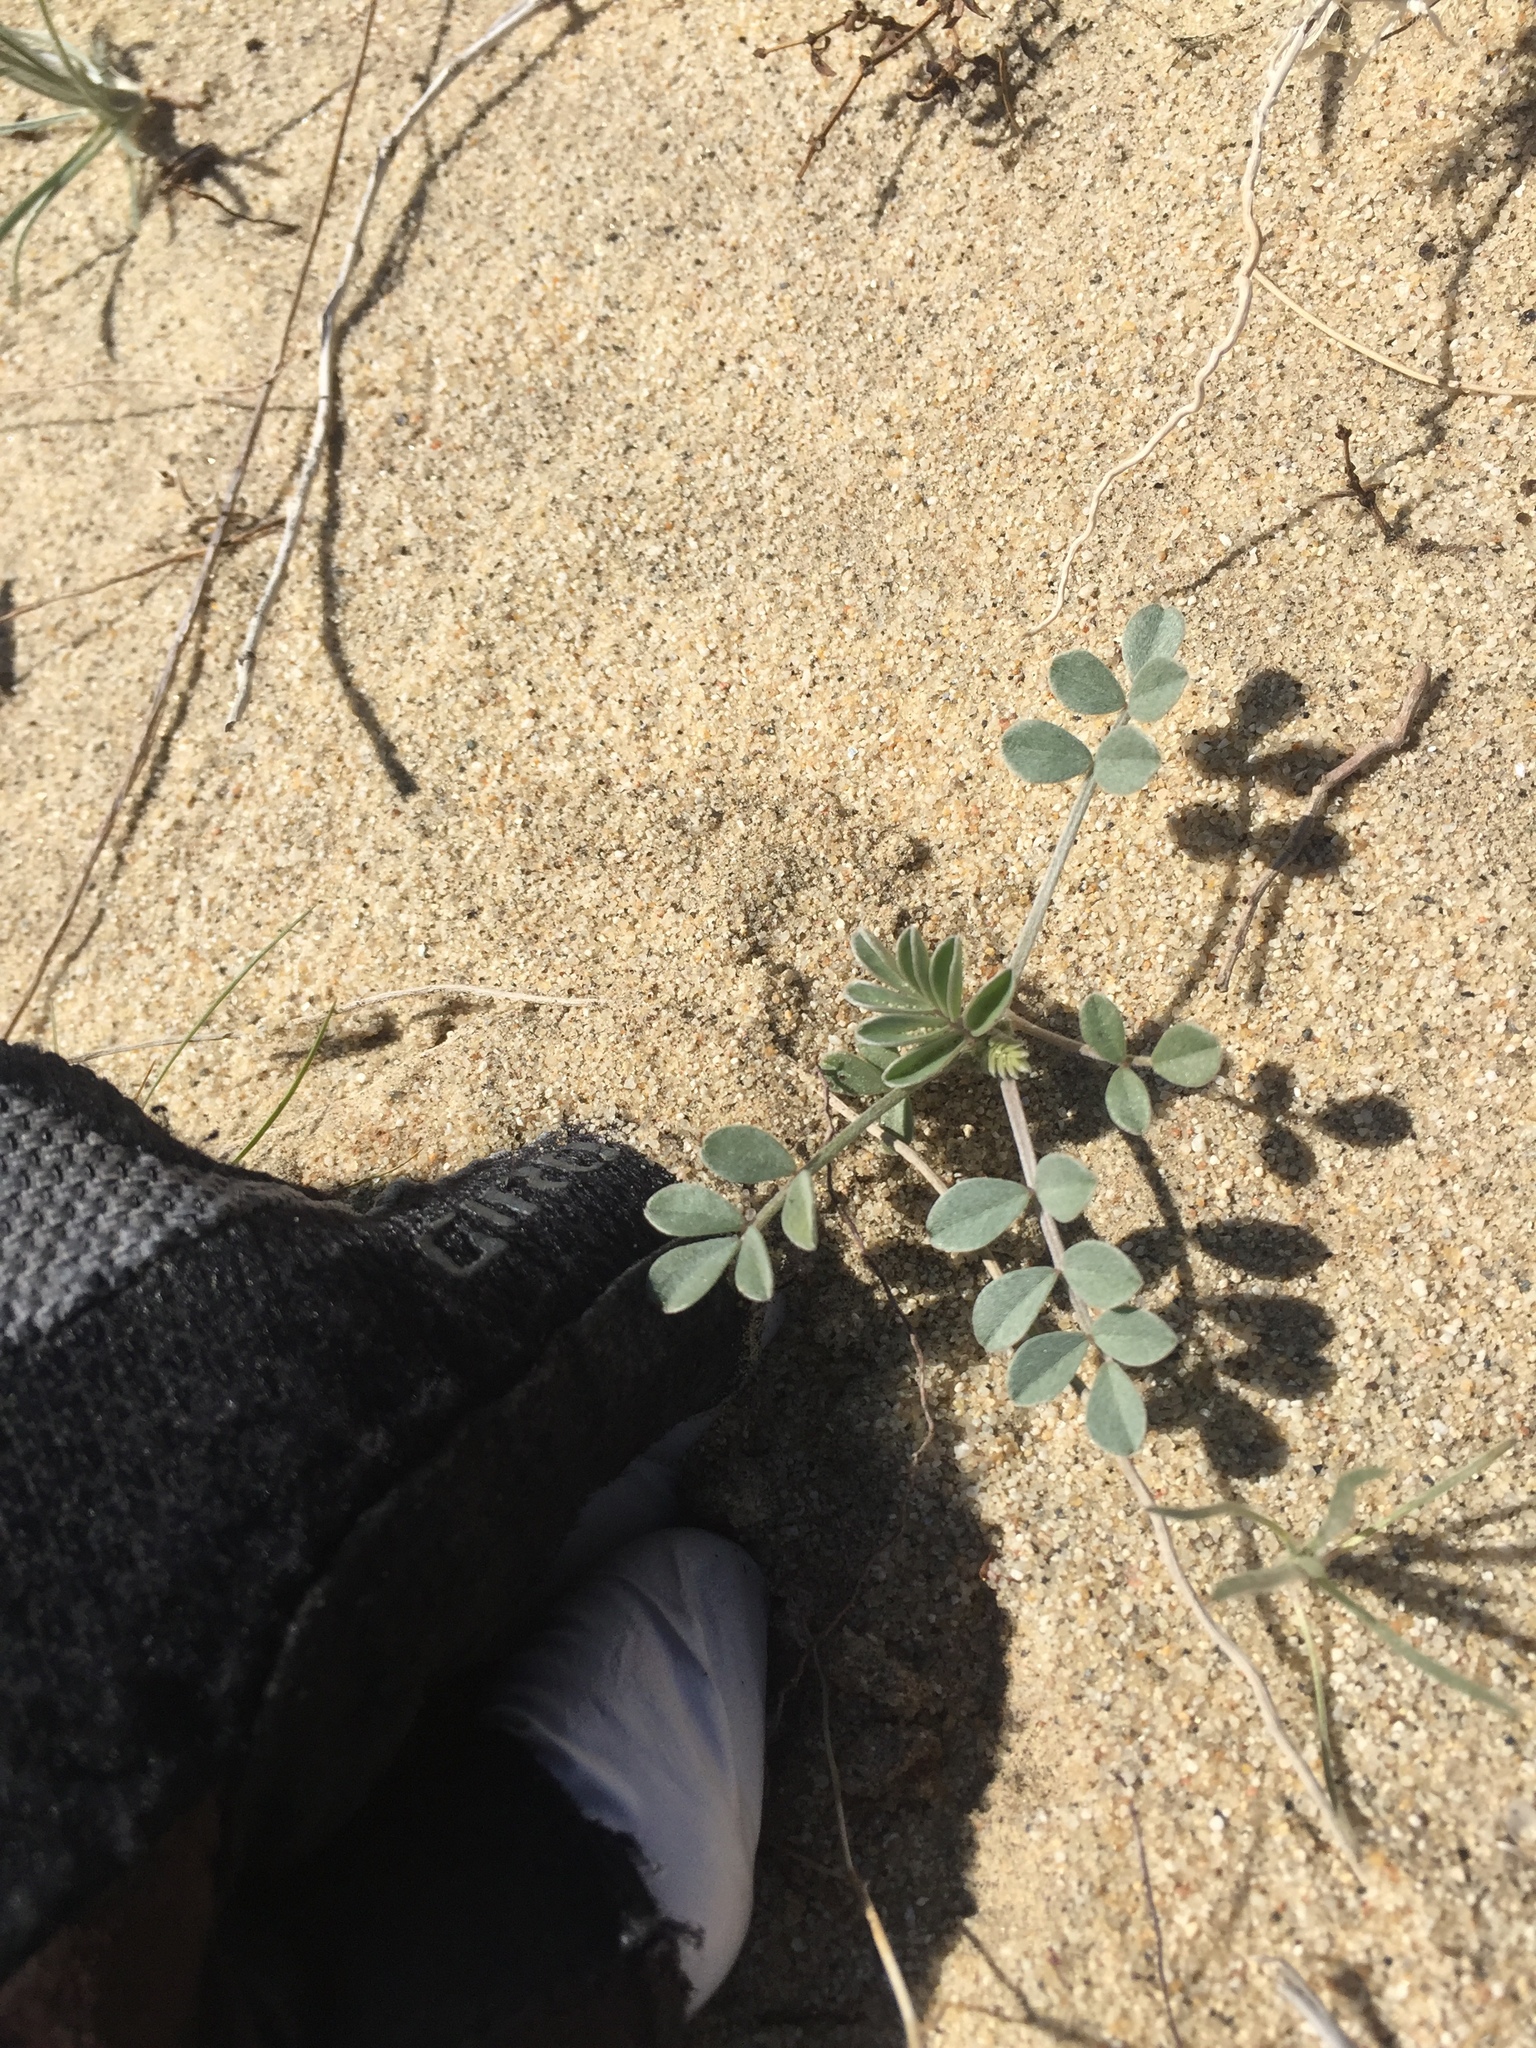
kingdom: Plantae
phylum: Tracheophyta
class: Magnoliopsida
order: Fabales
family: Fabaceae
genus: Astragalus
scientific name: Astragalus lentiginosus
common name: Freckled milkvetch
